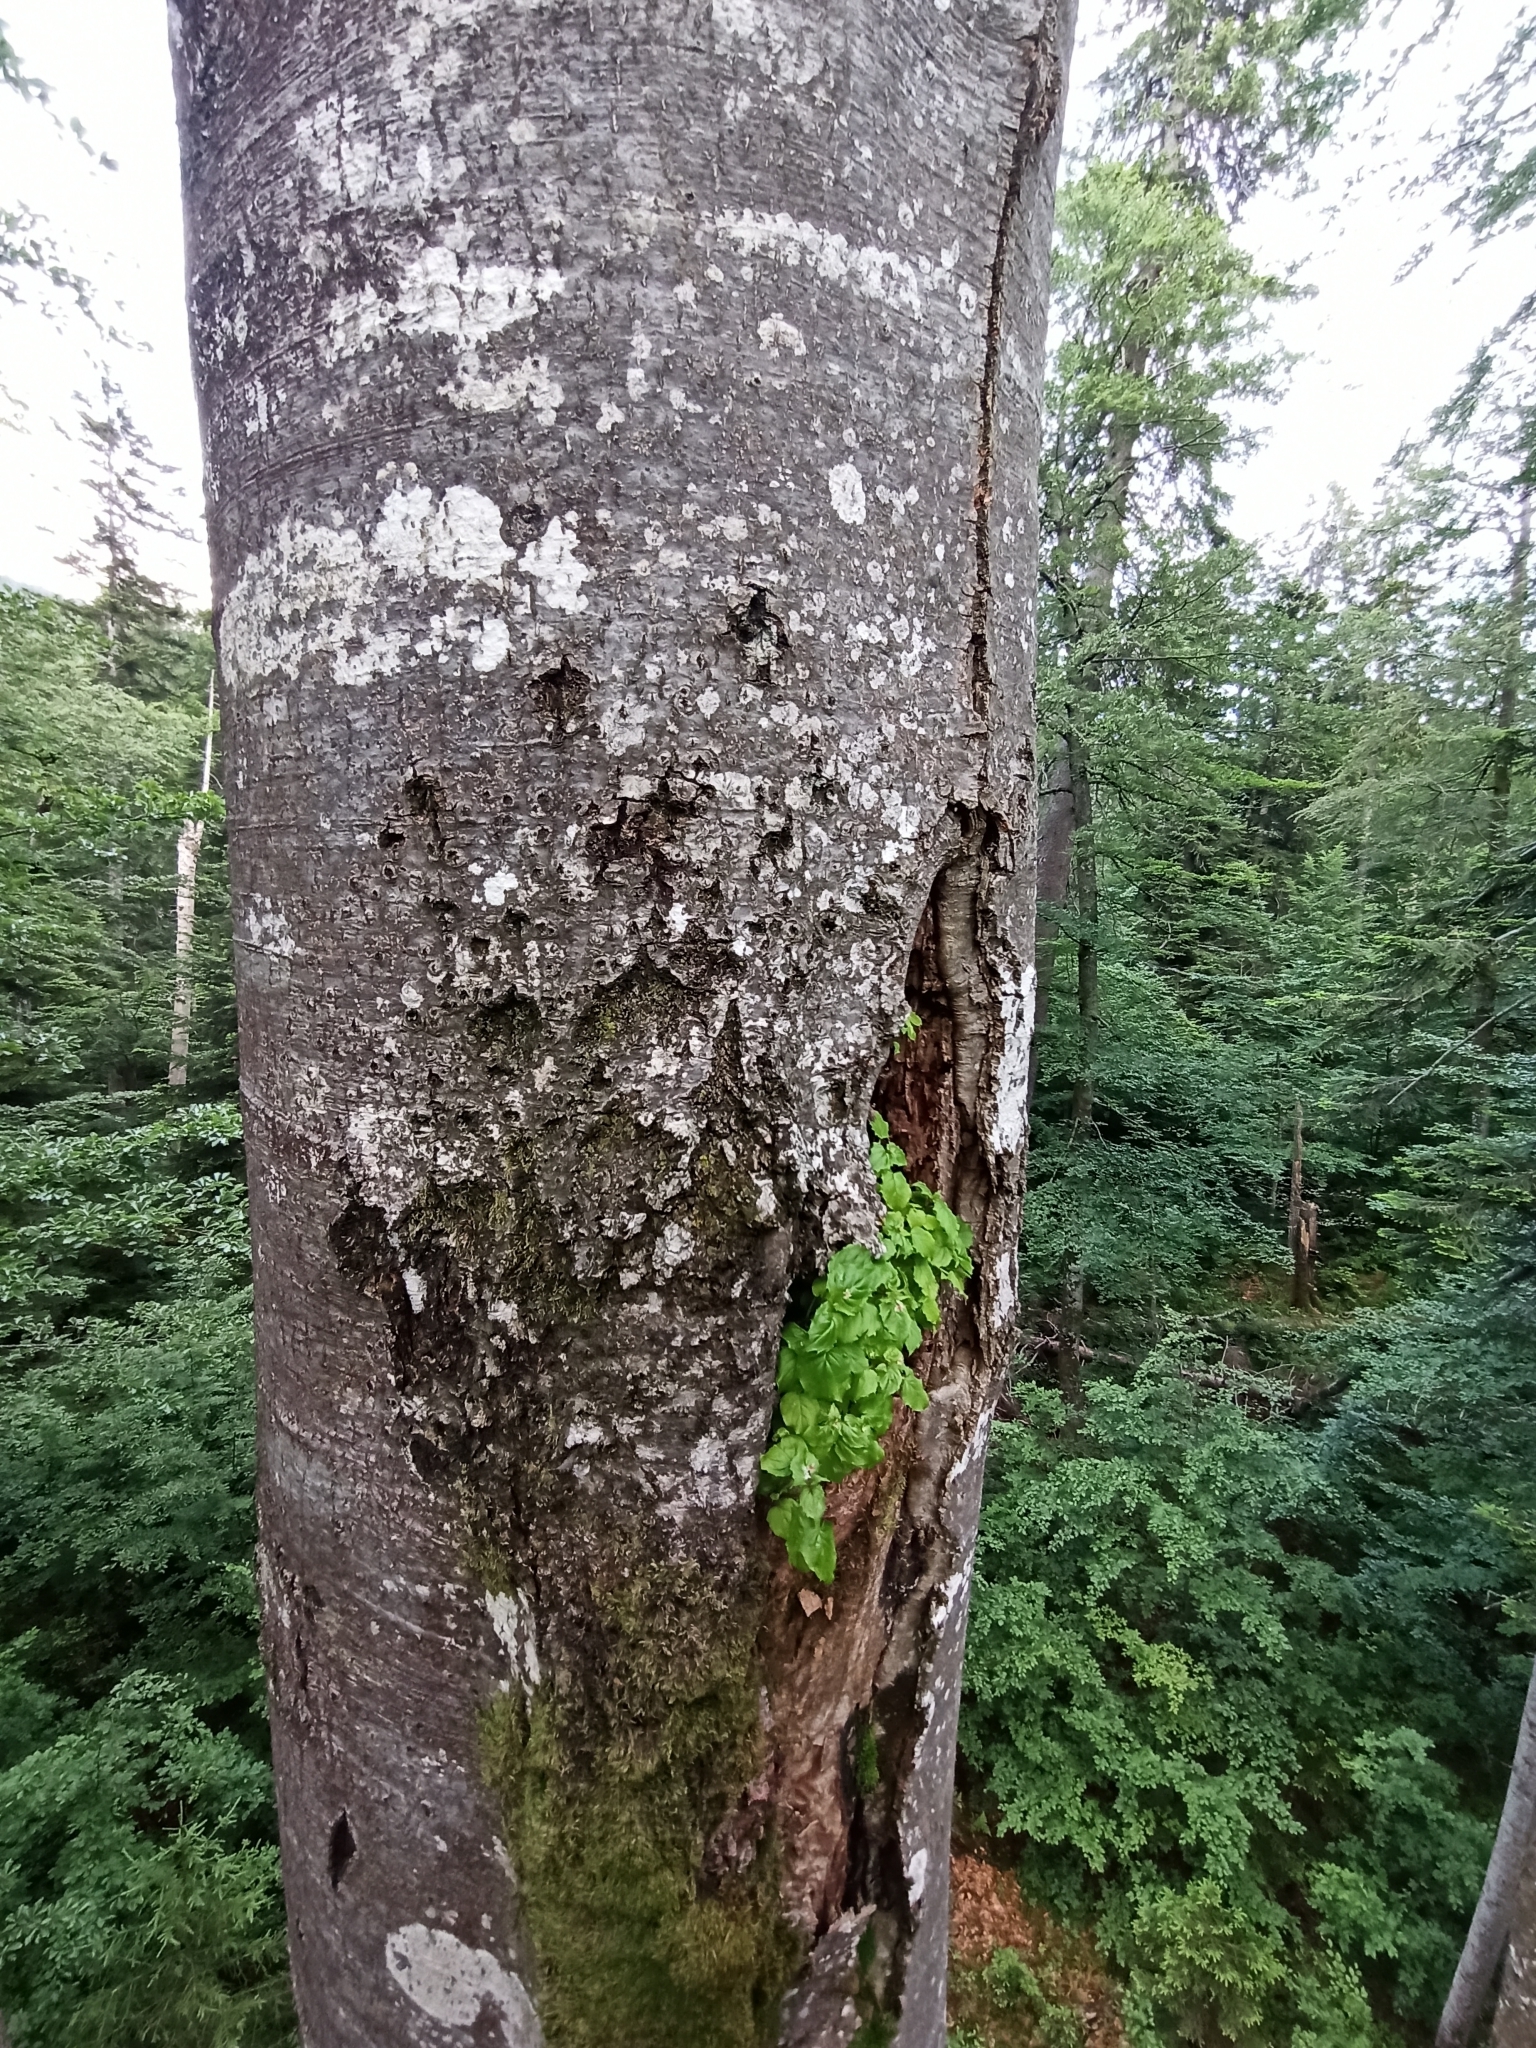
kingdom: Plantae
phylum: Tracheophyta
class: Magnoliopsida
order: Myrtales
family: Onagraceae
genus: Circaea
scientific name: Circaea alpina
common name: Alpine enchanter's-nightshade
